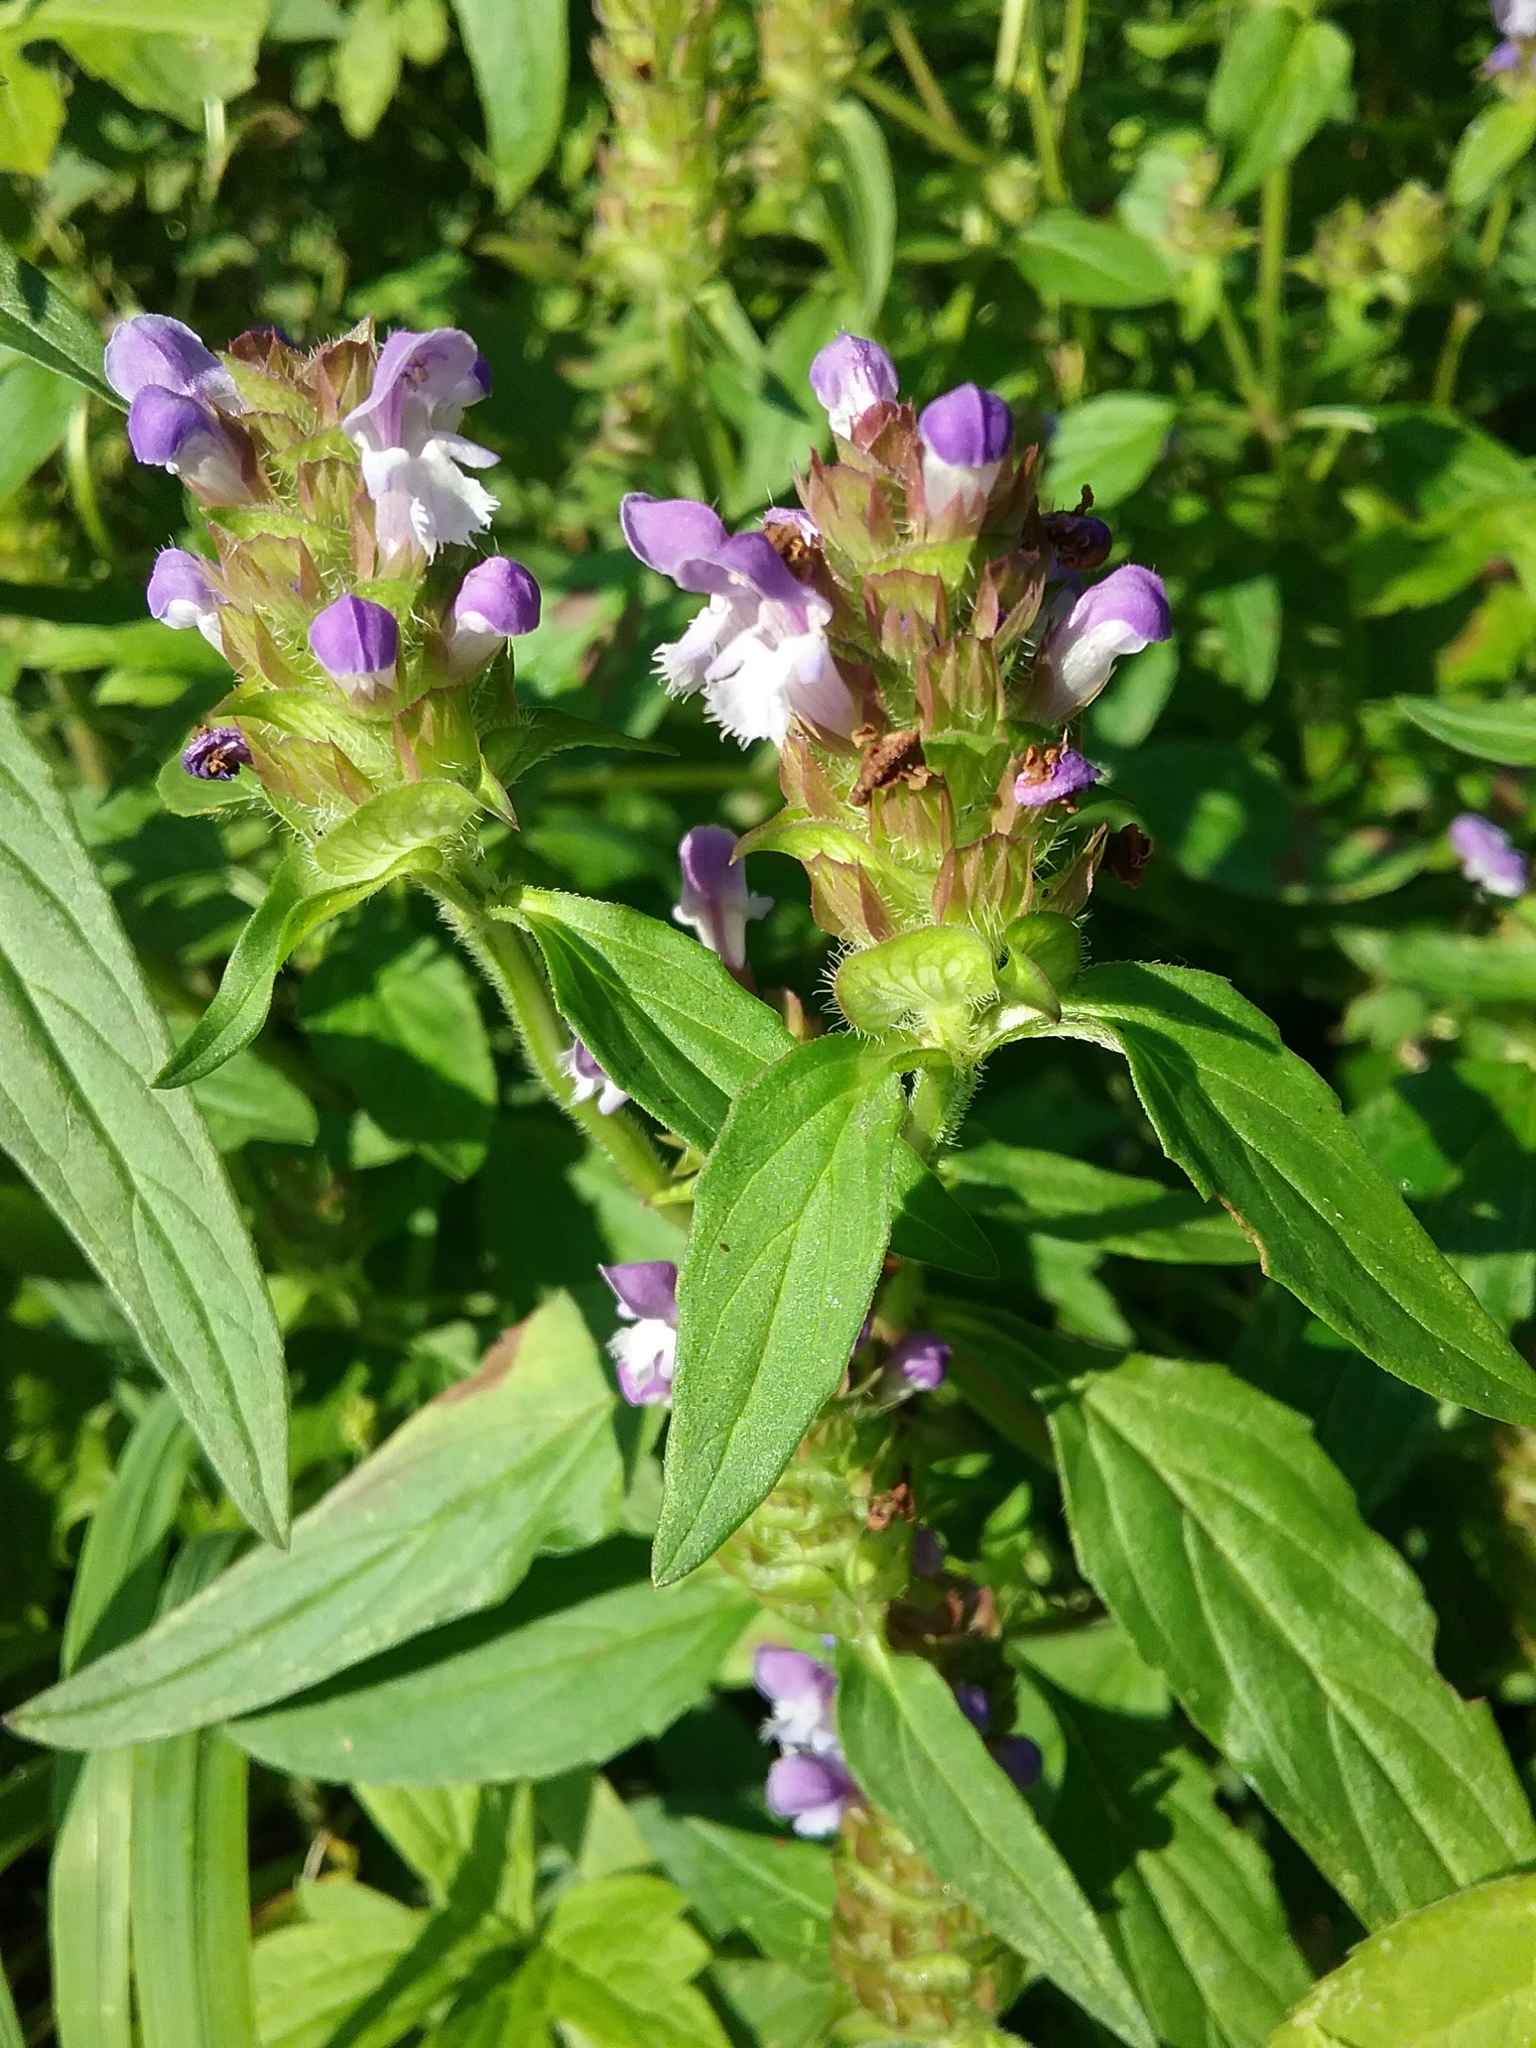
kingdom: Plantae
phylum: Tracheophyta
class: Magnoliopsida
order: Lamiales
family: Lamiaceae
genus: Prunella
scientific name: Prunella vulgaris
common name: Heal-all
